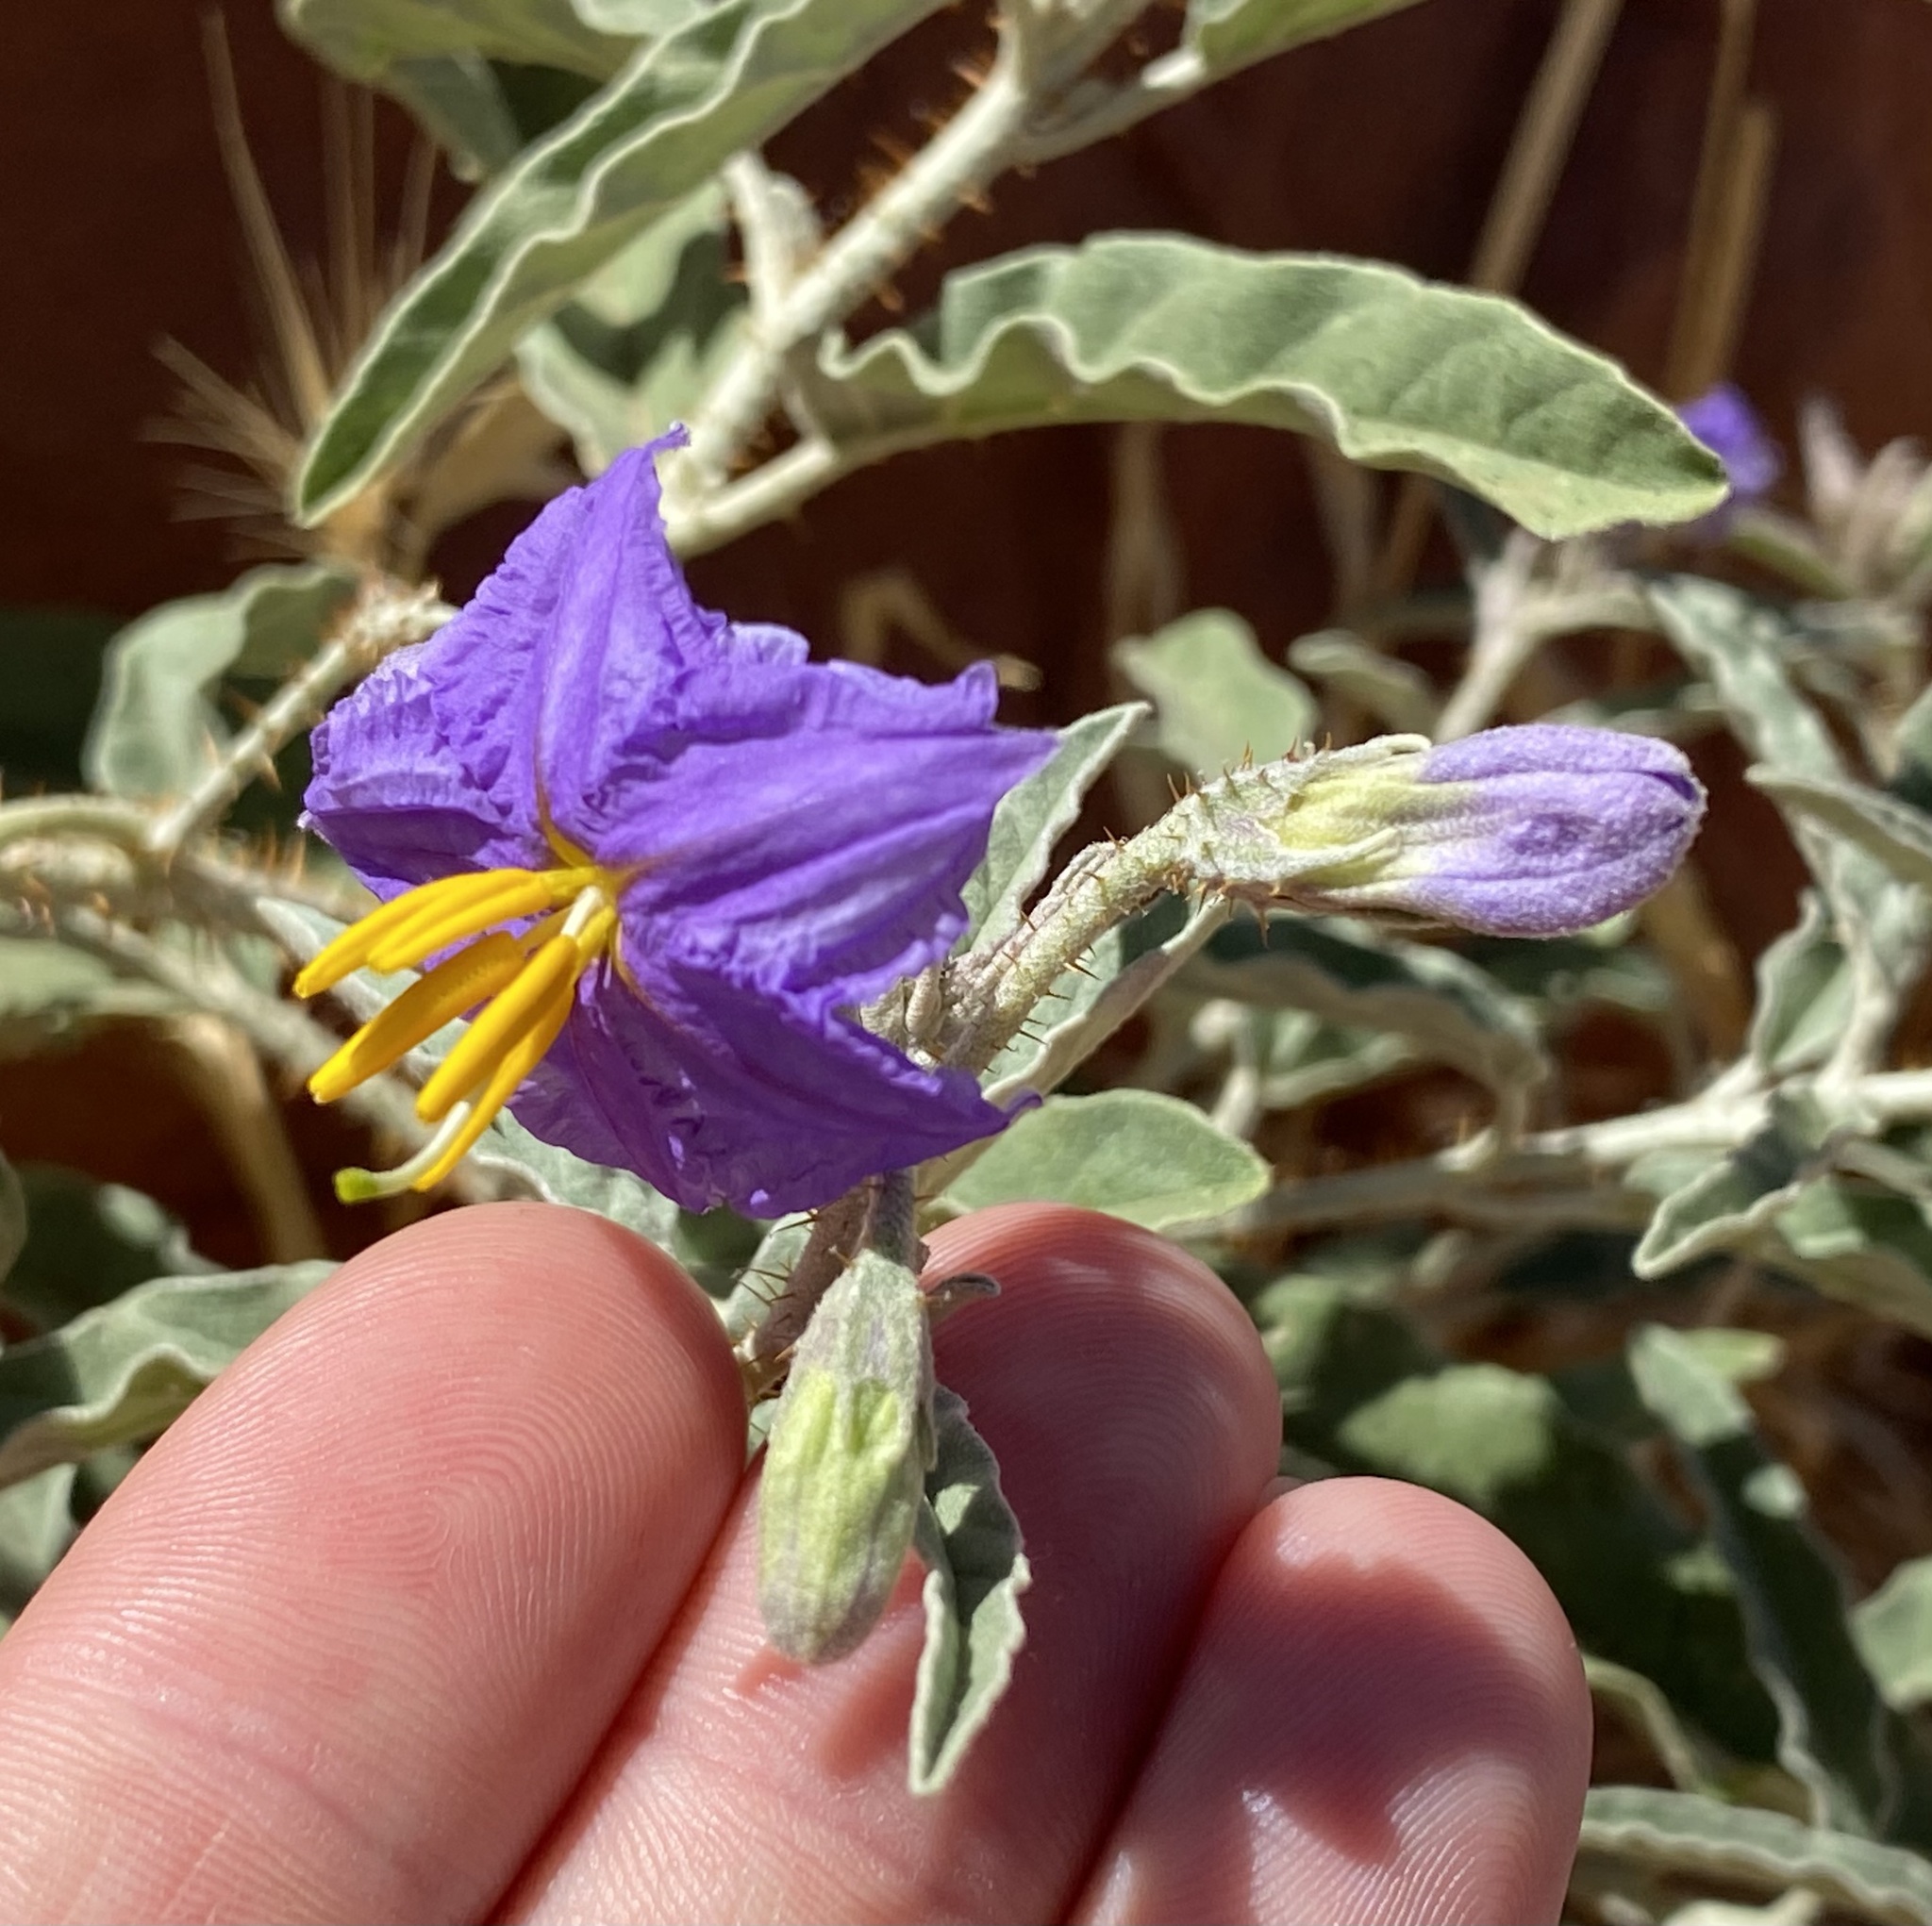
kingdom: Plantae
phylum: Tracheophyta
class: Magnoliopsida
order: Solanales
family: Solanaceae
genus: Solanum
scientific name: Solanum elaeagnifolium
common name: Silverleaf nightshade
